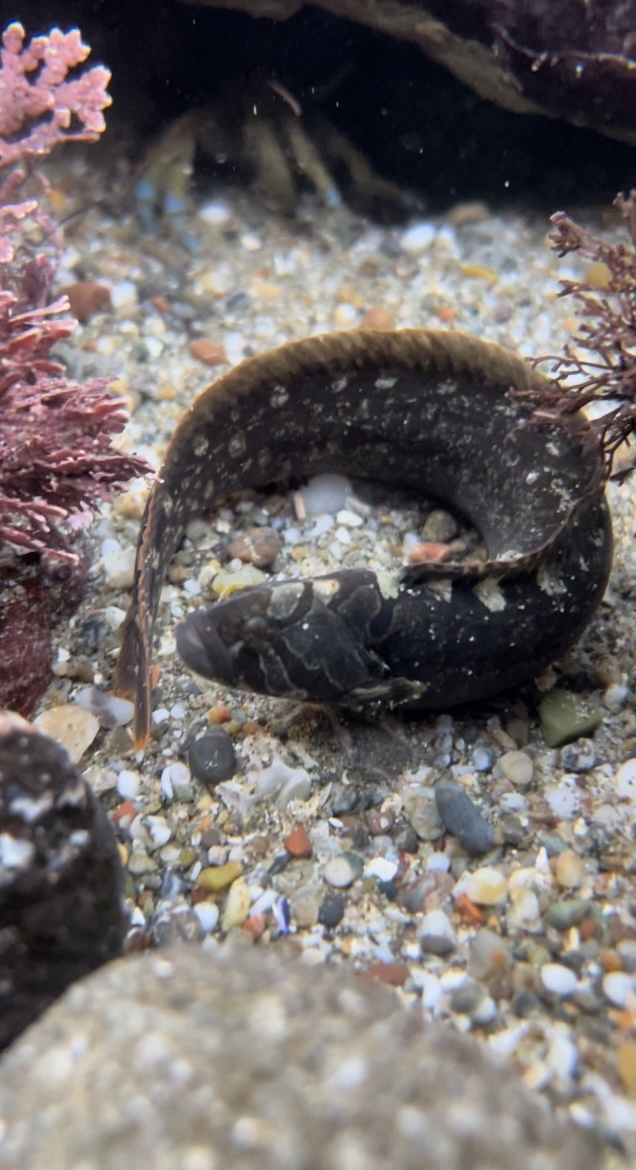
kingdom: Animalia
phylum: Chordata
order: Perciformes
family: Stichaeidae
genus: Cebidichthys
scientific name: Cebidichthys violaceus
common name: Monkeyface prickleback
